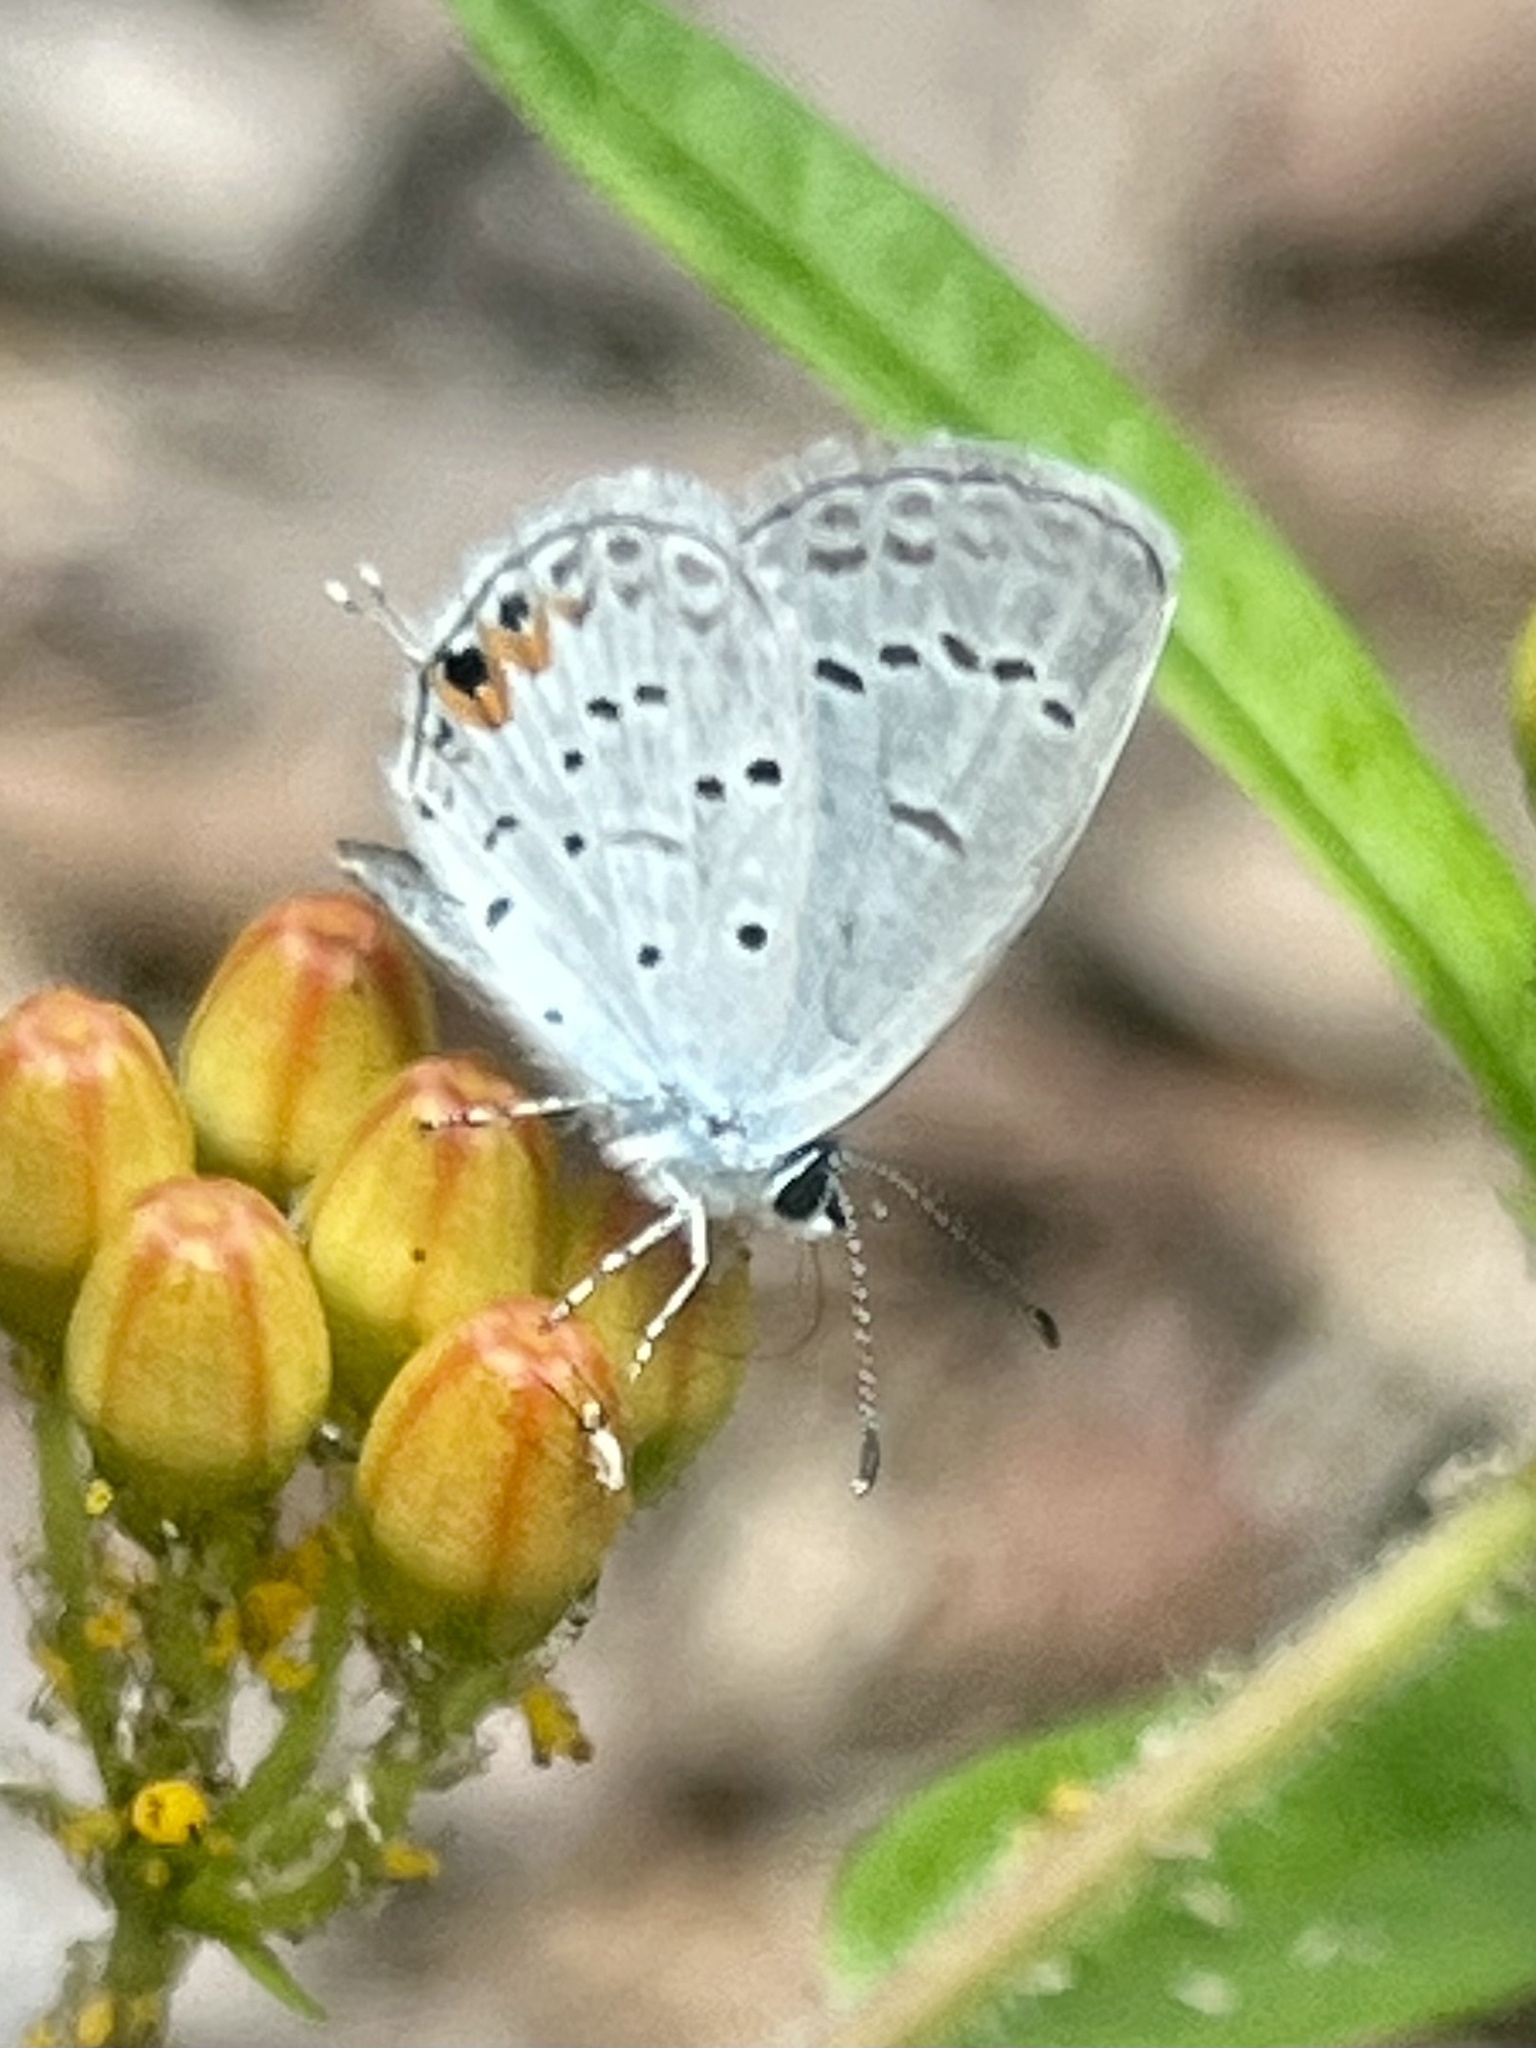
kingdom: Animalia
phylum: Arthropoda
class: Insecta
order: Lepidoptera
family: Lycaenidae
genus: Elkalyce
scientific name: Elkalyce comyntas
